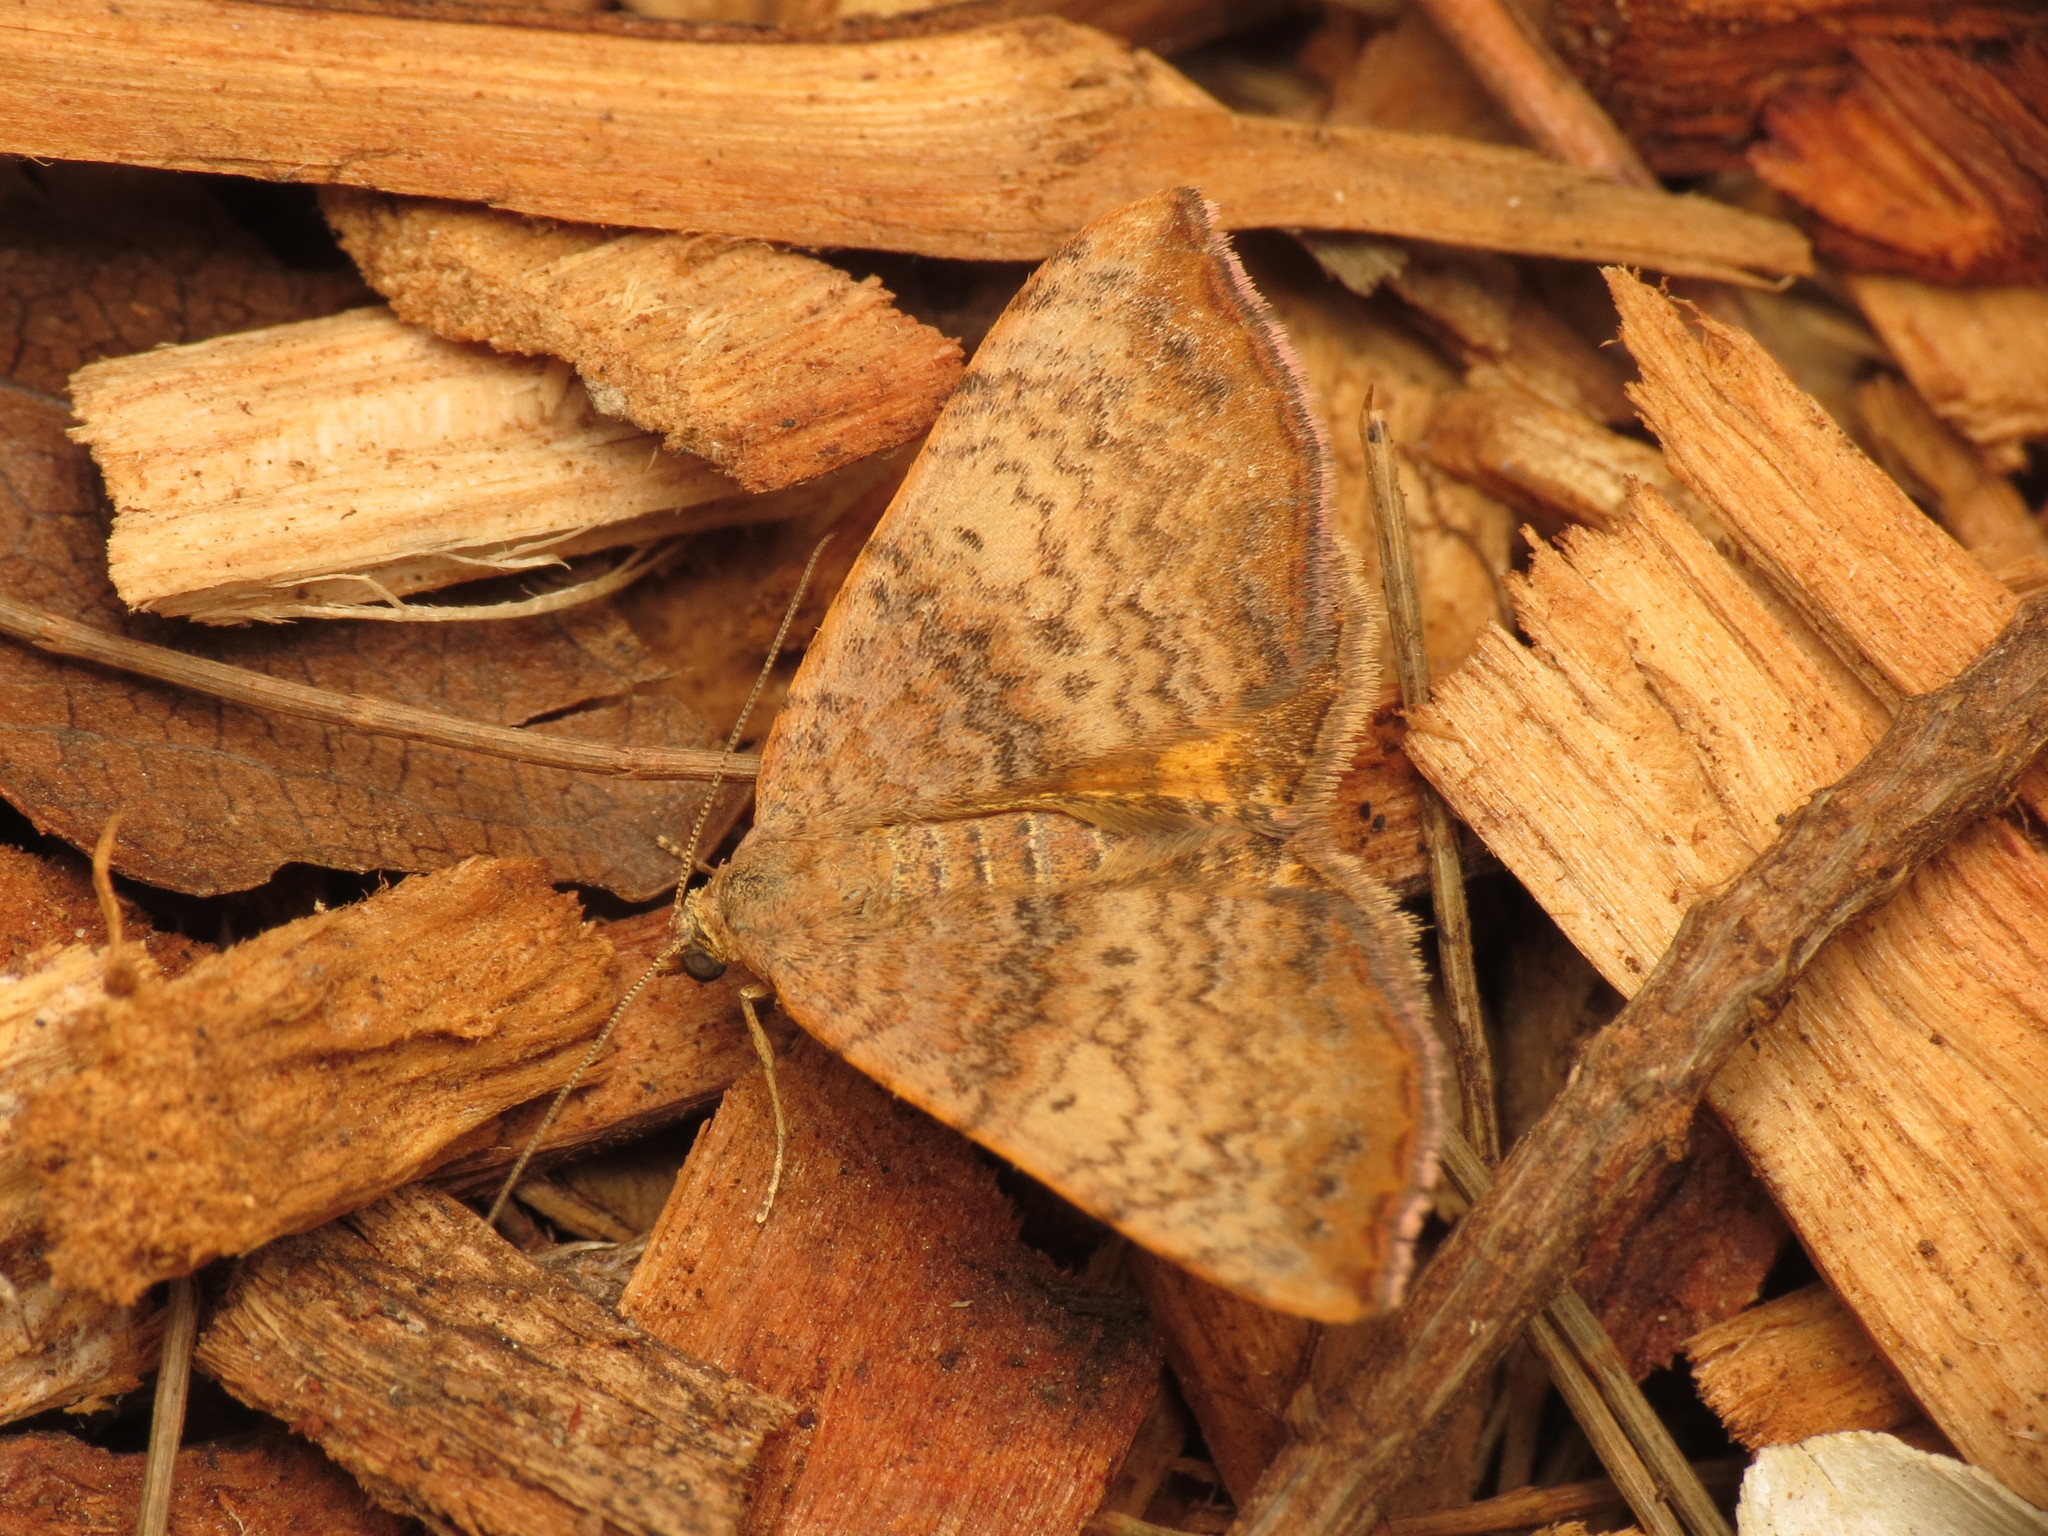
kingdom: Animalia
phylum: Arthropoda
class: Insecta
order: Lepidoptera
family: Geometridae
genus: Chrysolarentia
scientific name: Chrysolarentia mecynata
